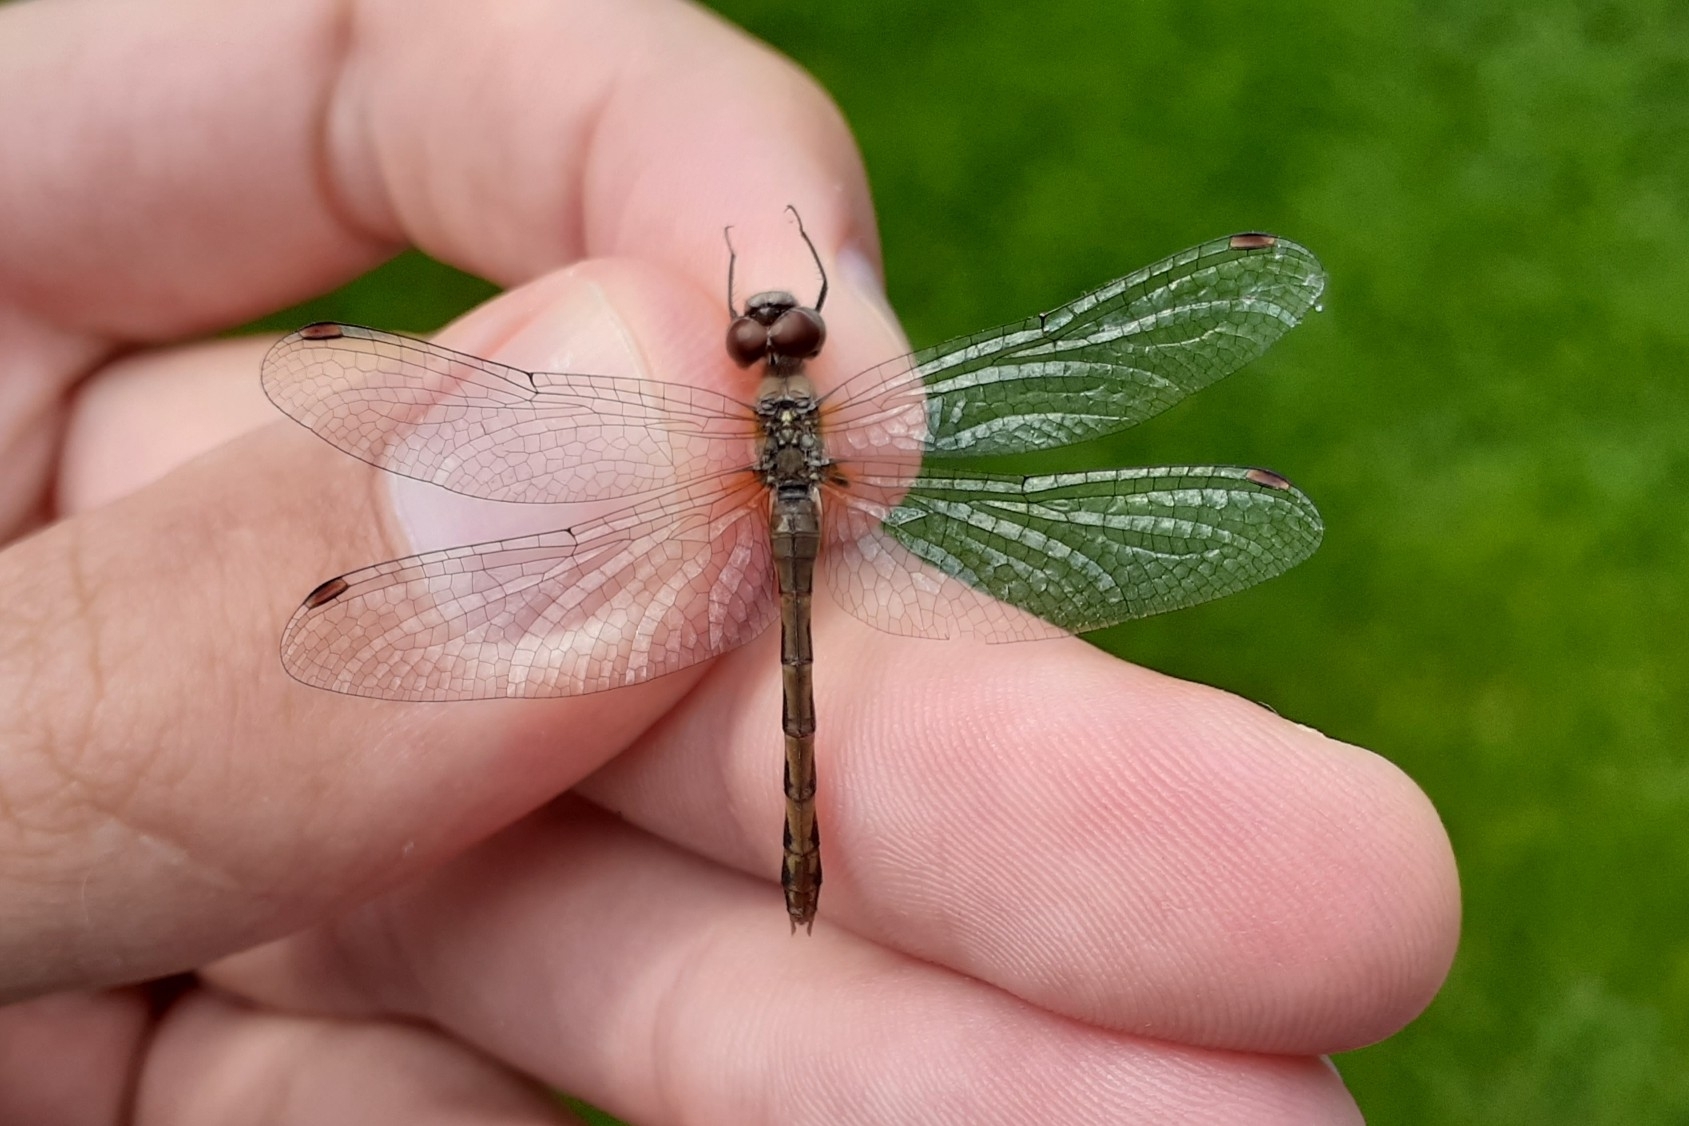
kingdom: Animalia
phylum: Arthropoda
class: Insecta
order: Odonata
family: Libellulidae
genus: Sympetrum
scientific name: Sympetrum obtrusum
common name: White-faced meadowhawk
